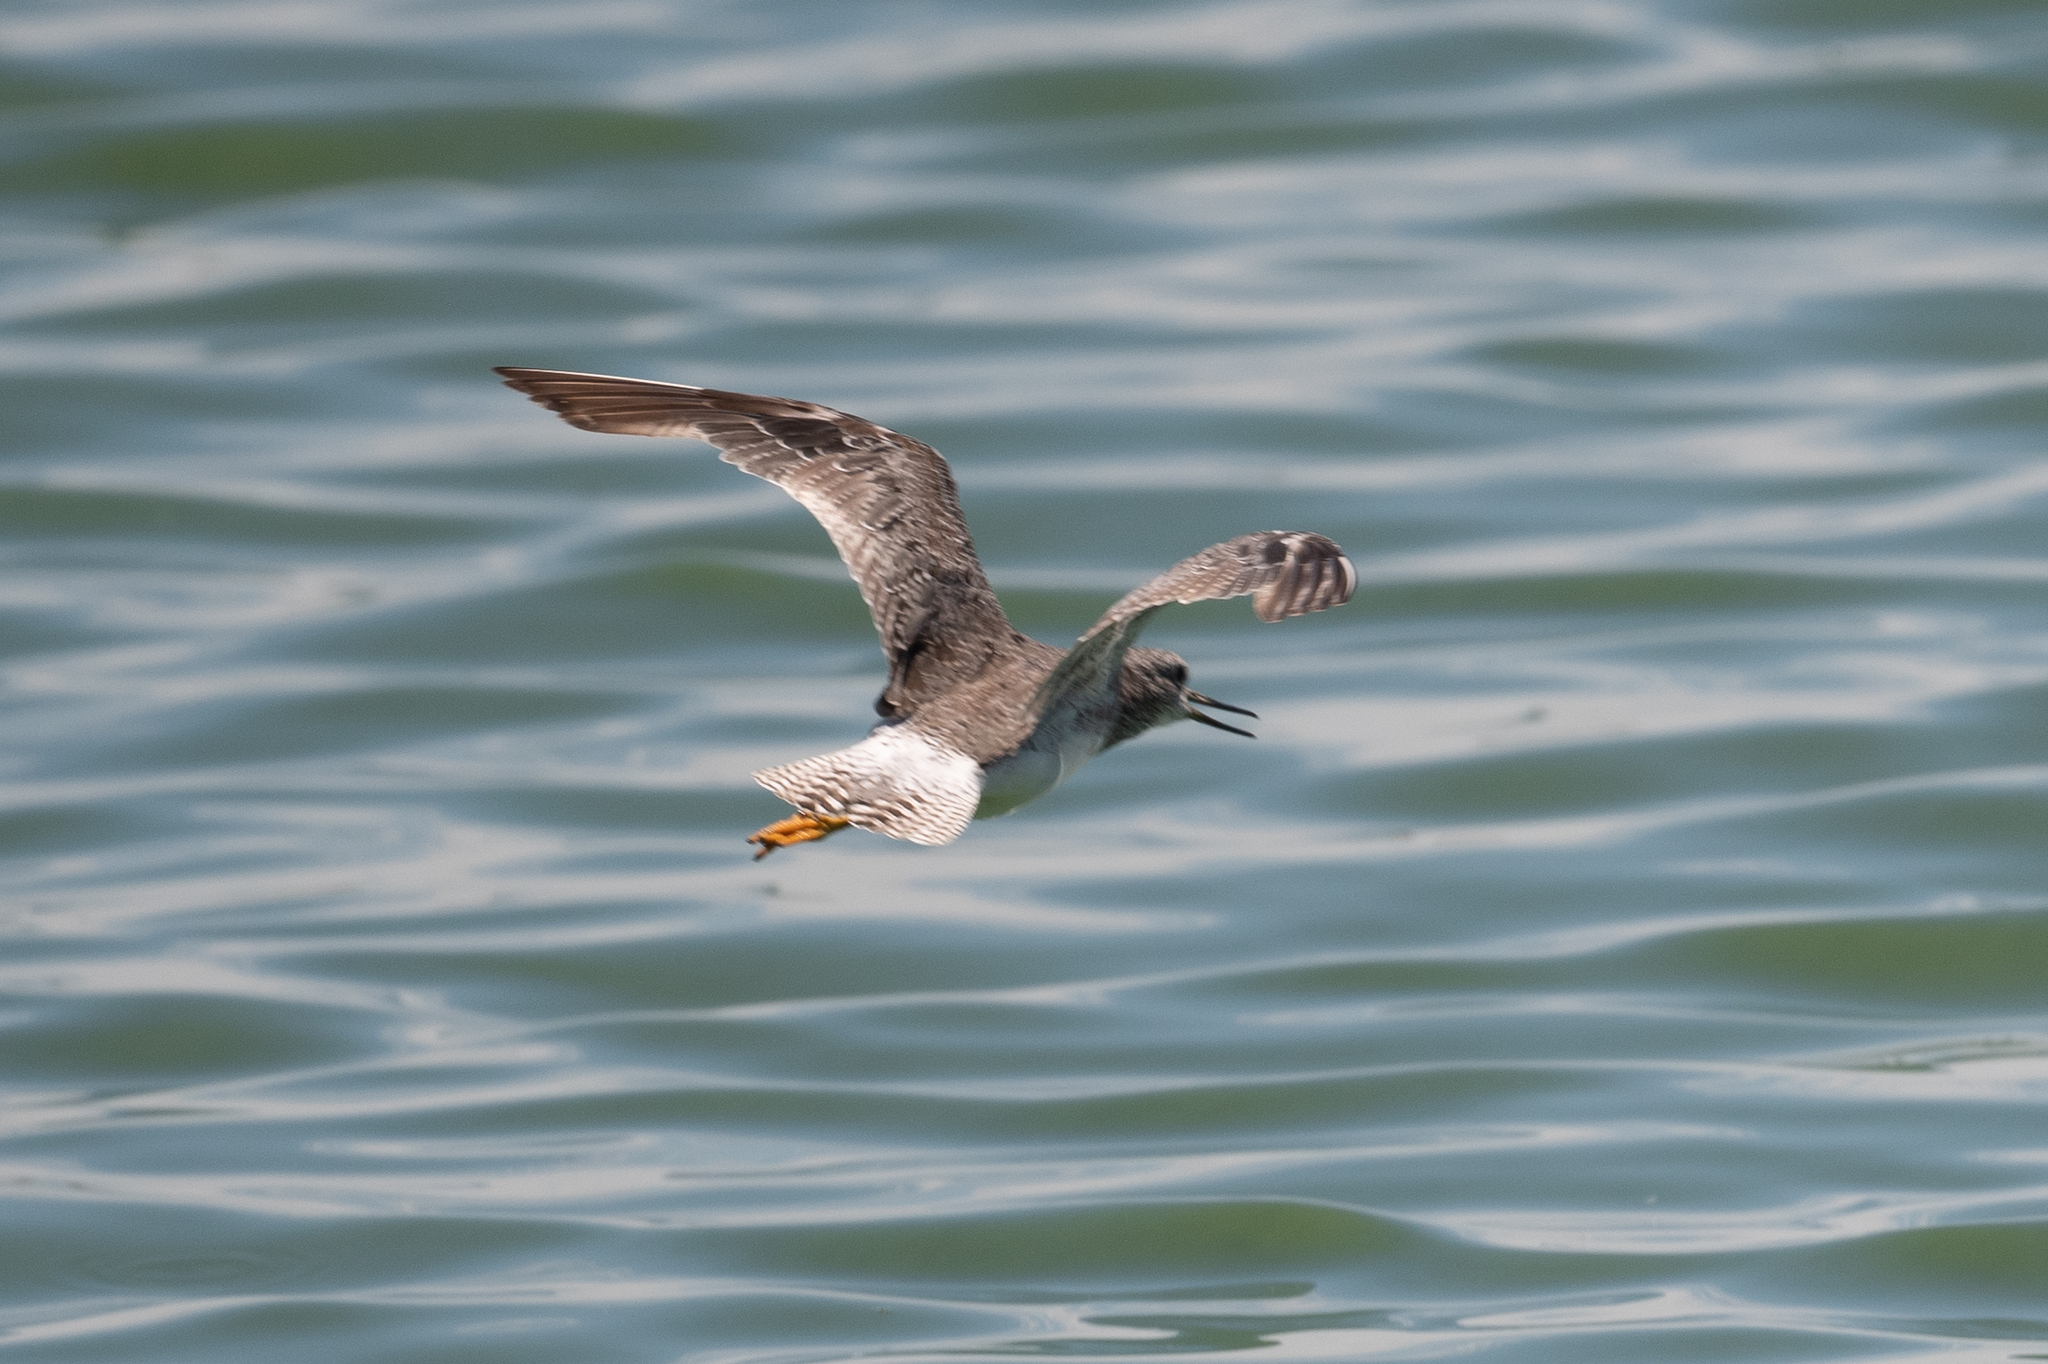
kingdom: Animalia
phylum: Chordata
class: Aves
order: Charadriiformes
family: Scolopacidae
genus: Tringa
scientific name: Tringa melanoleuca
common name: Greater yellowlegs
